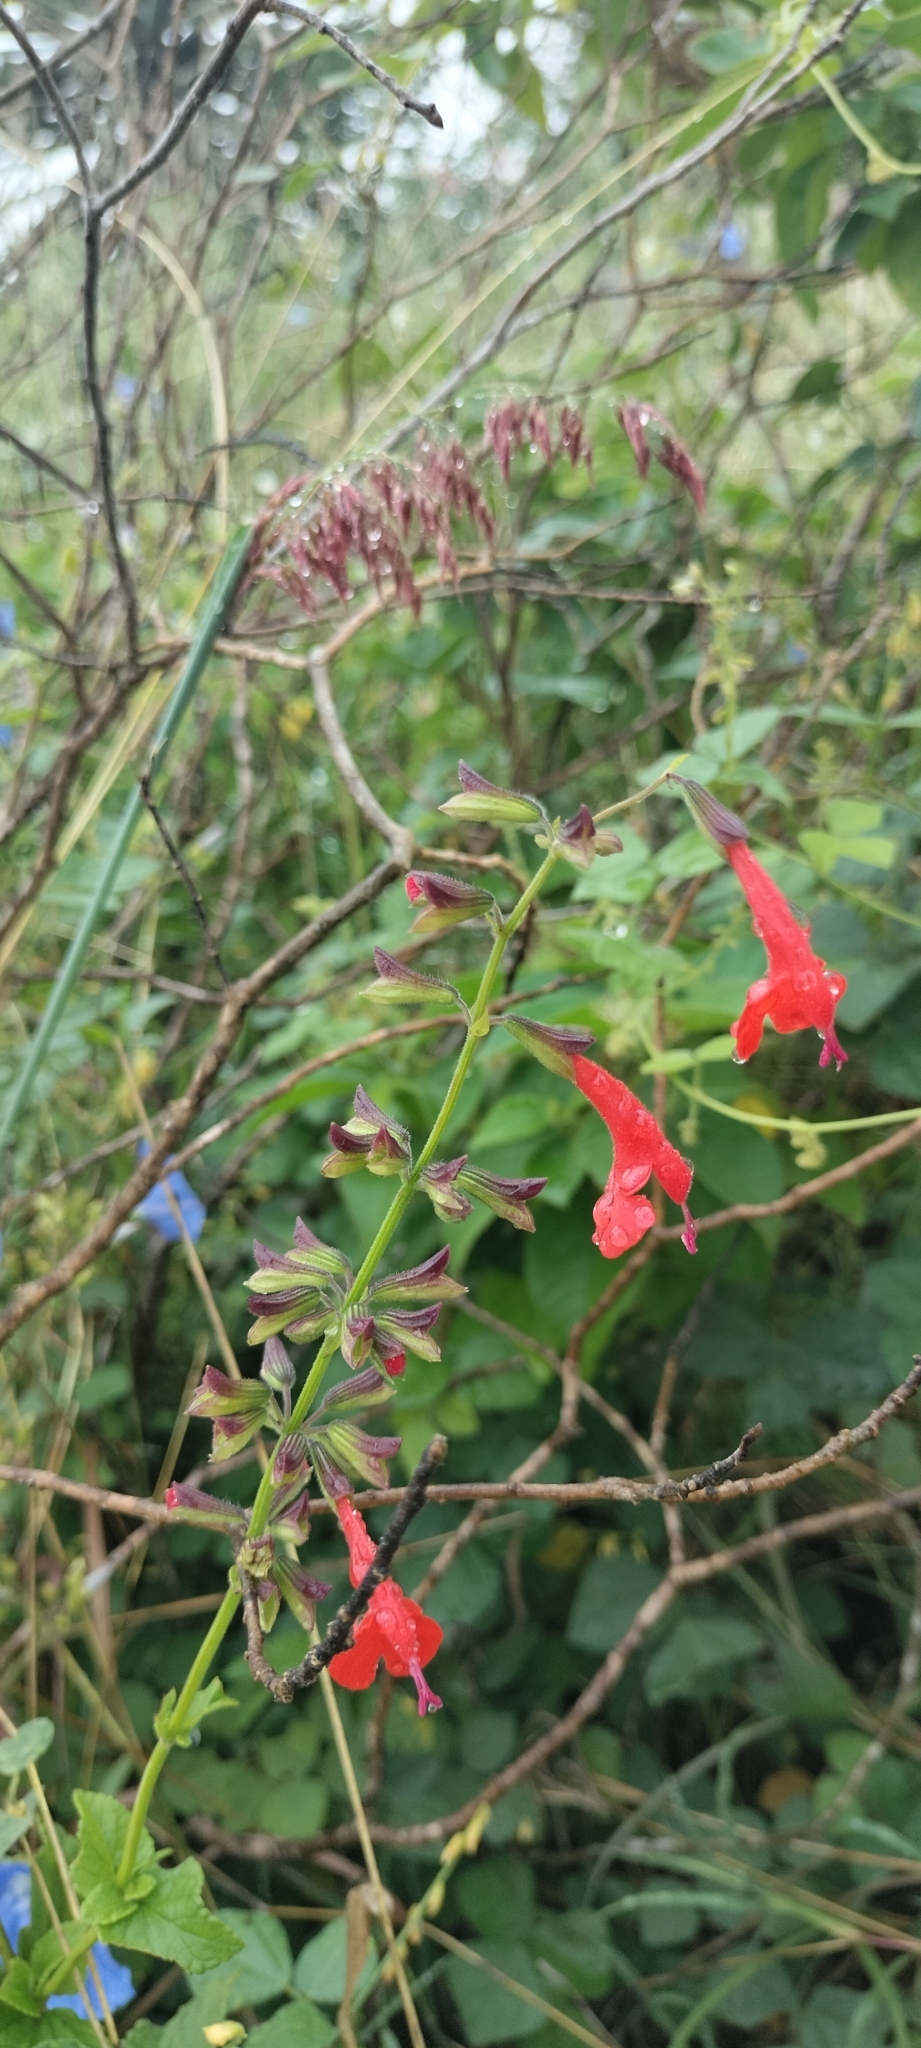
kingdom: Plantae
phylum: Tracheophyta
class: Magnoliopsida
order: Lamiales
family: Lamiaceae
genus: Salvia
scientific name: Salvia coccinea
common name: Blood sage
